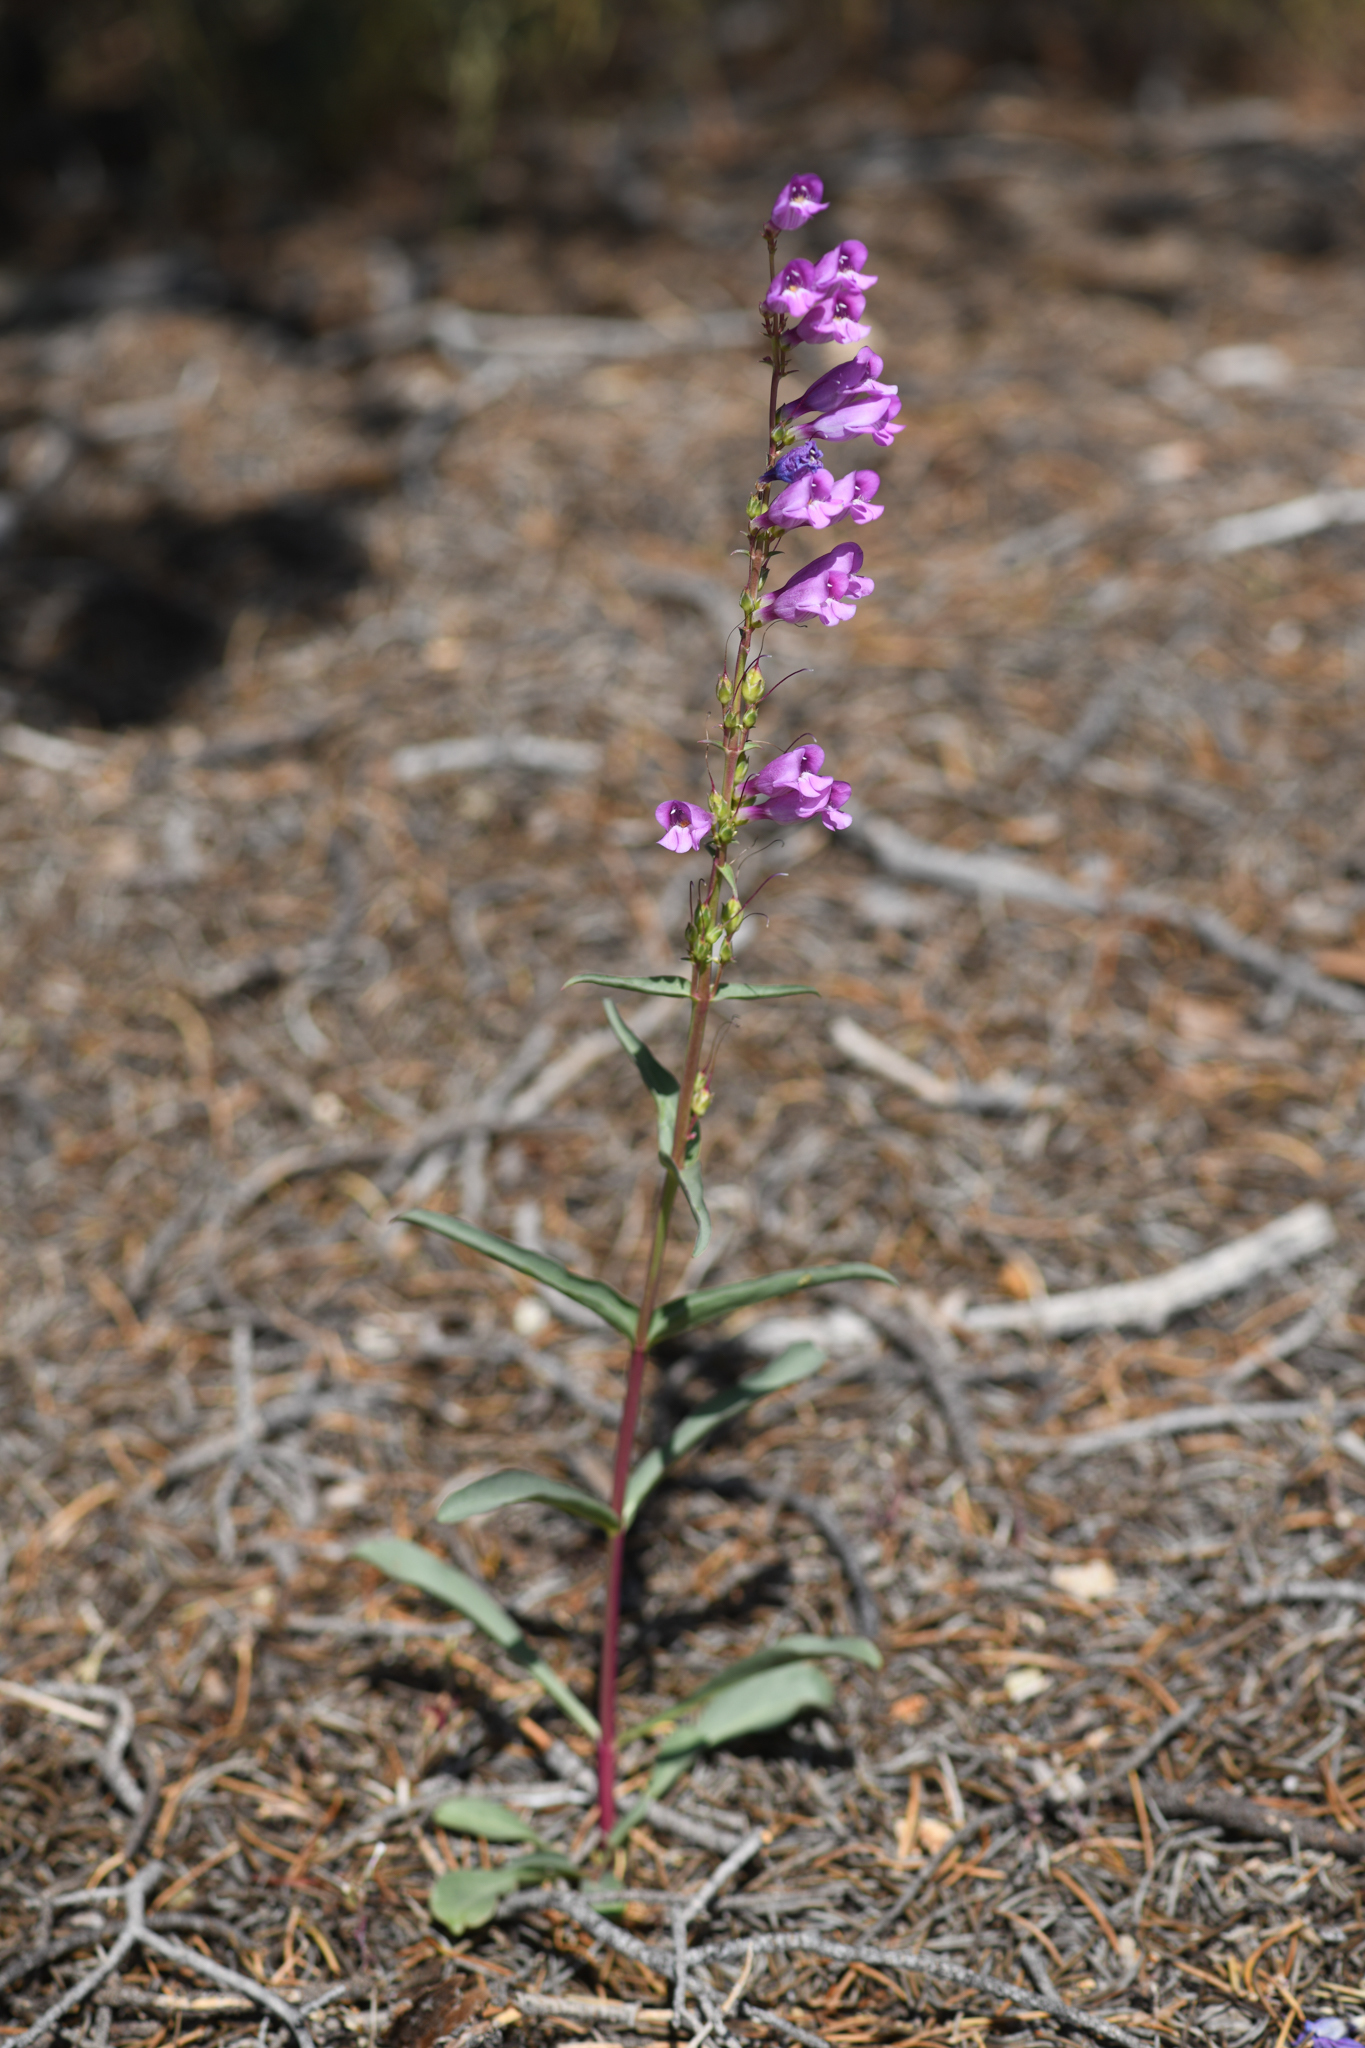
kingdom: Plantae
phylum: Tracheophyta
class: Magnoliopsida
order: Lamiales
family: Plantaginaceae
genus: Penstemon
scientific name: Penstemon pahutensis
